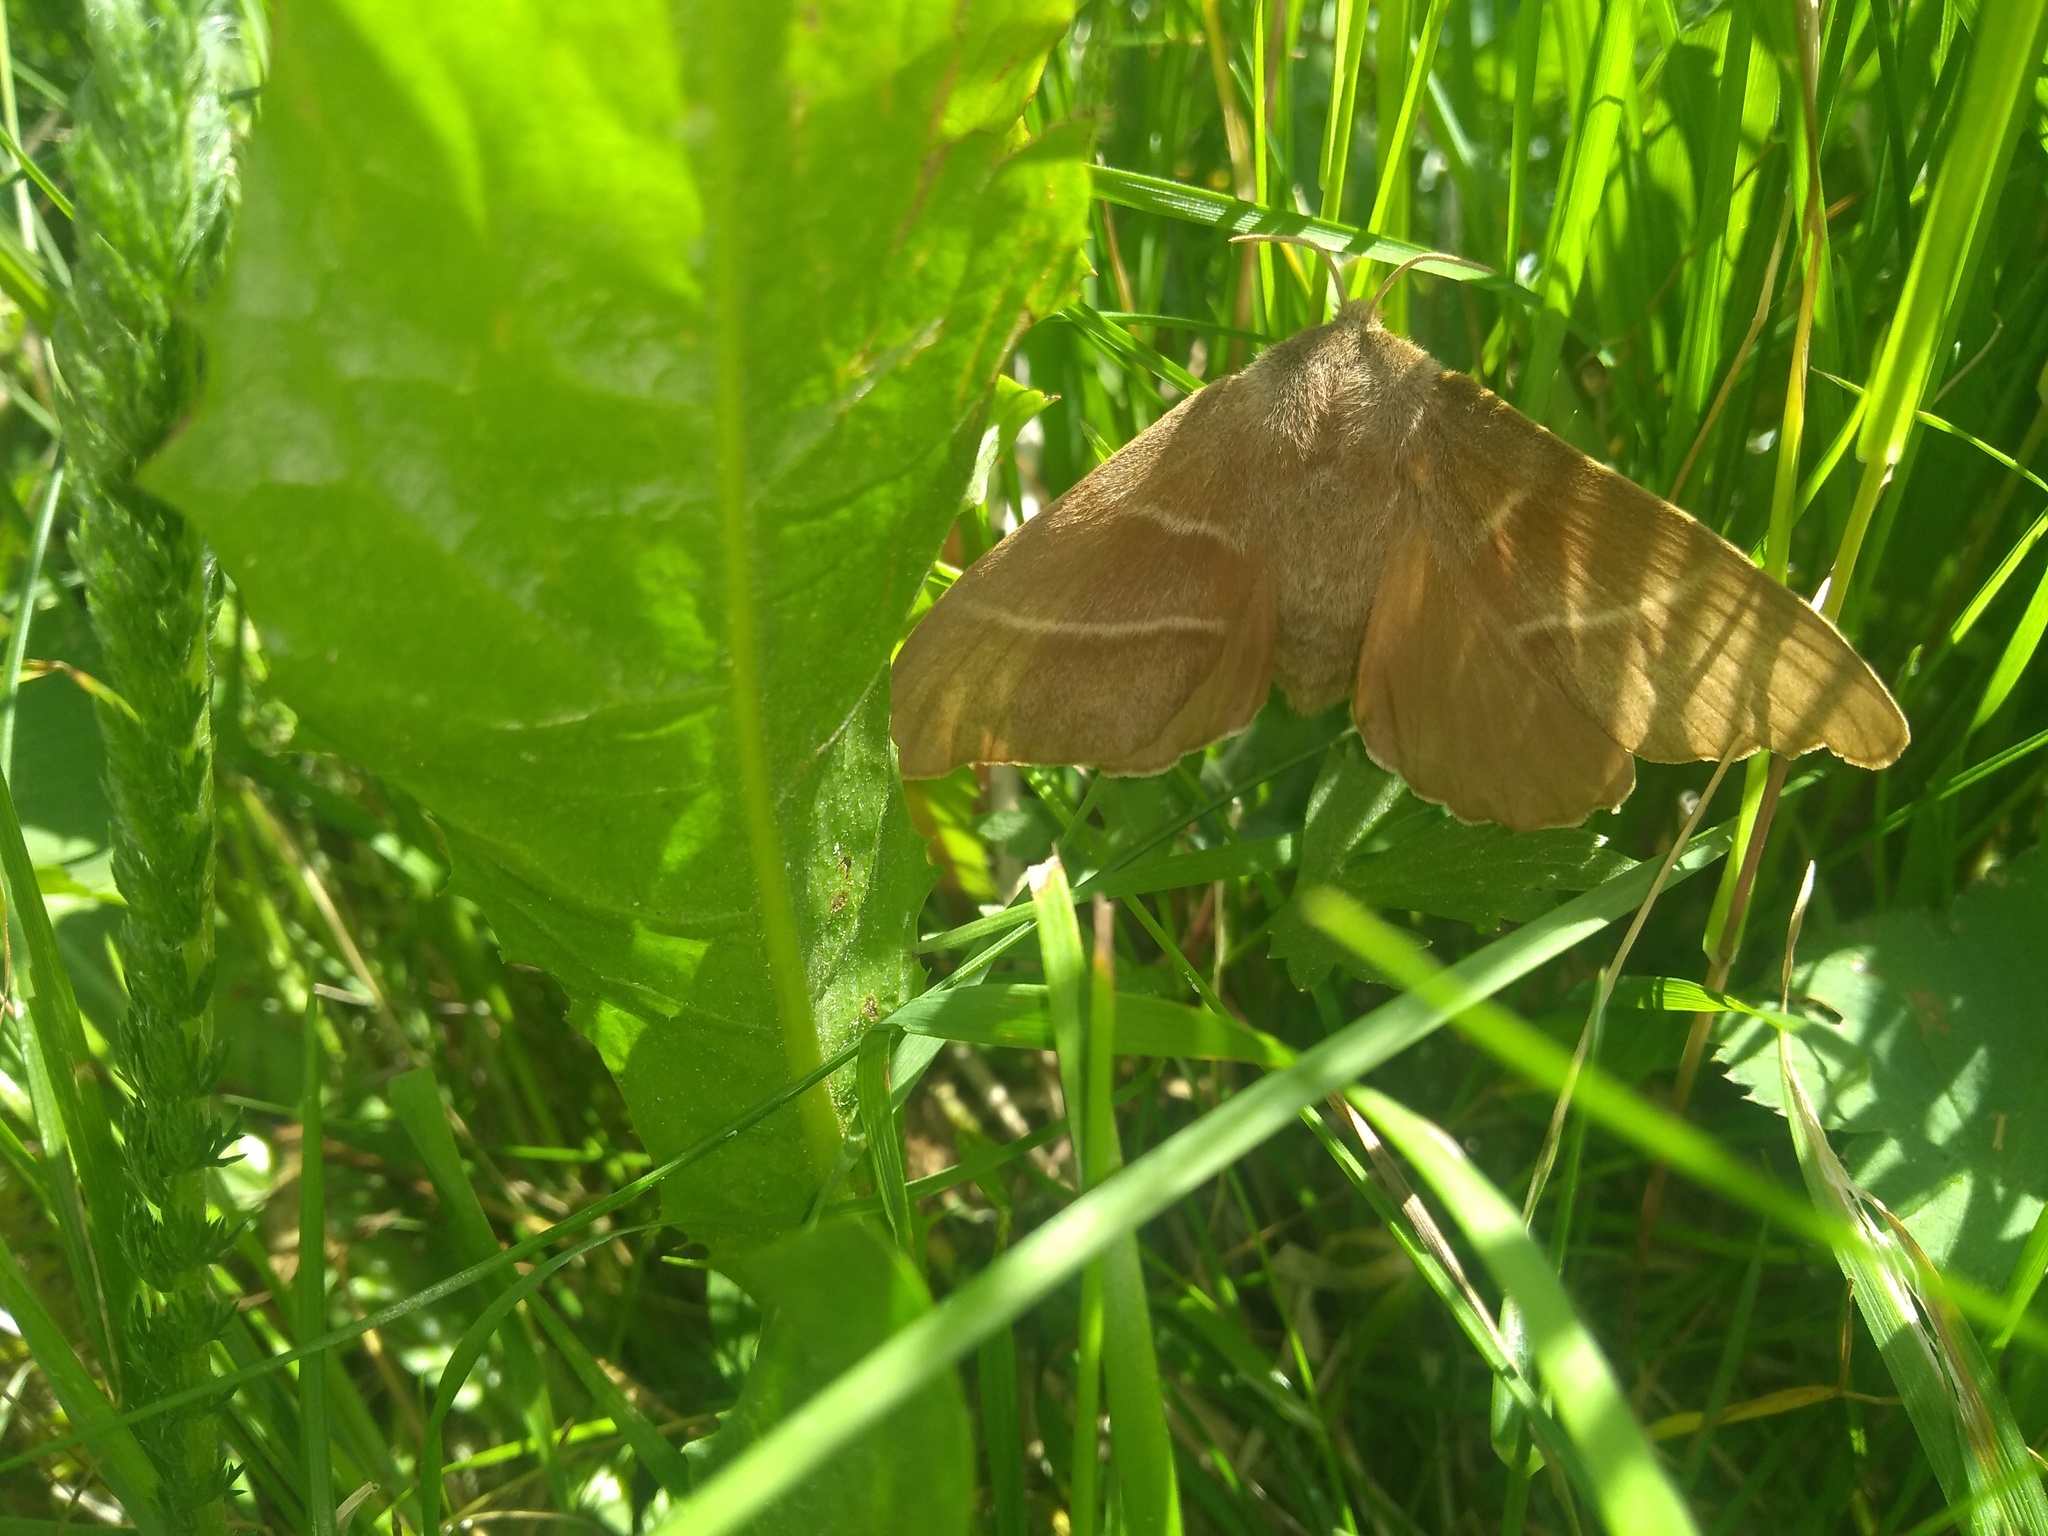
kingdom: Animalia
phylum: Arthropoda
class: Insecta
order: Lepidoptera
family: Lasiocampidae
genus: Macrothylacia
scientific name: Macrothylacia rubi
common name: Fox moth
